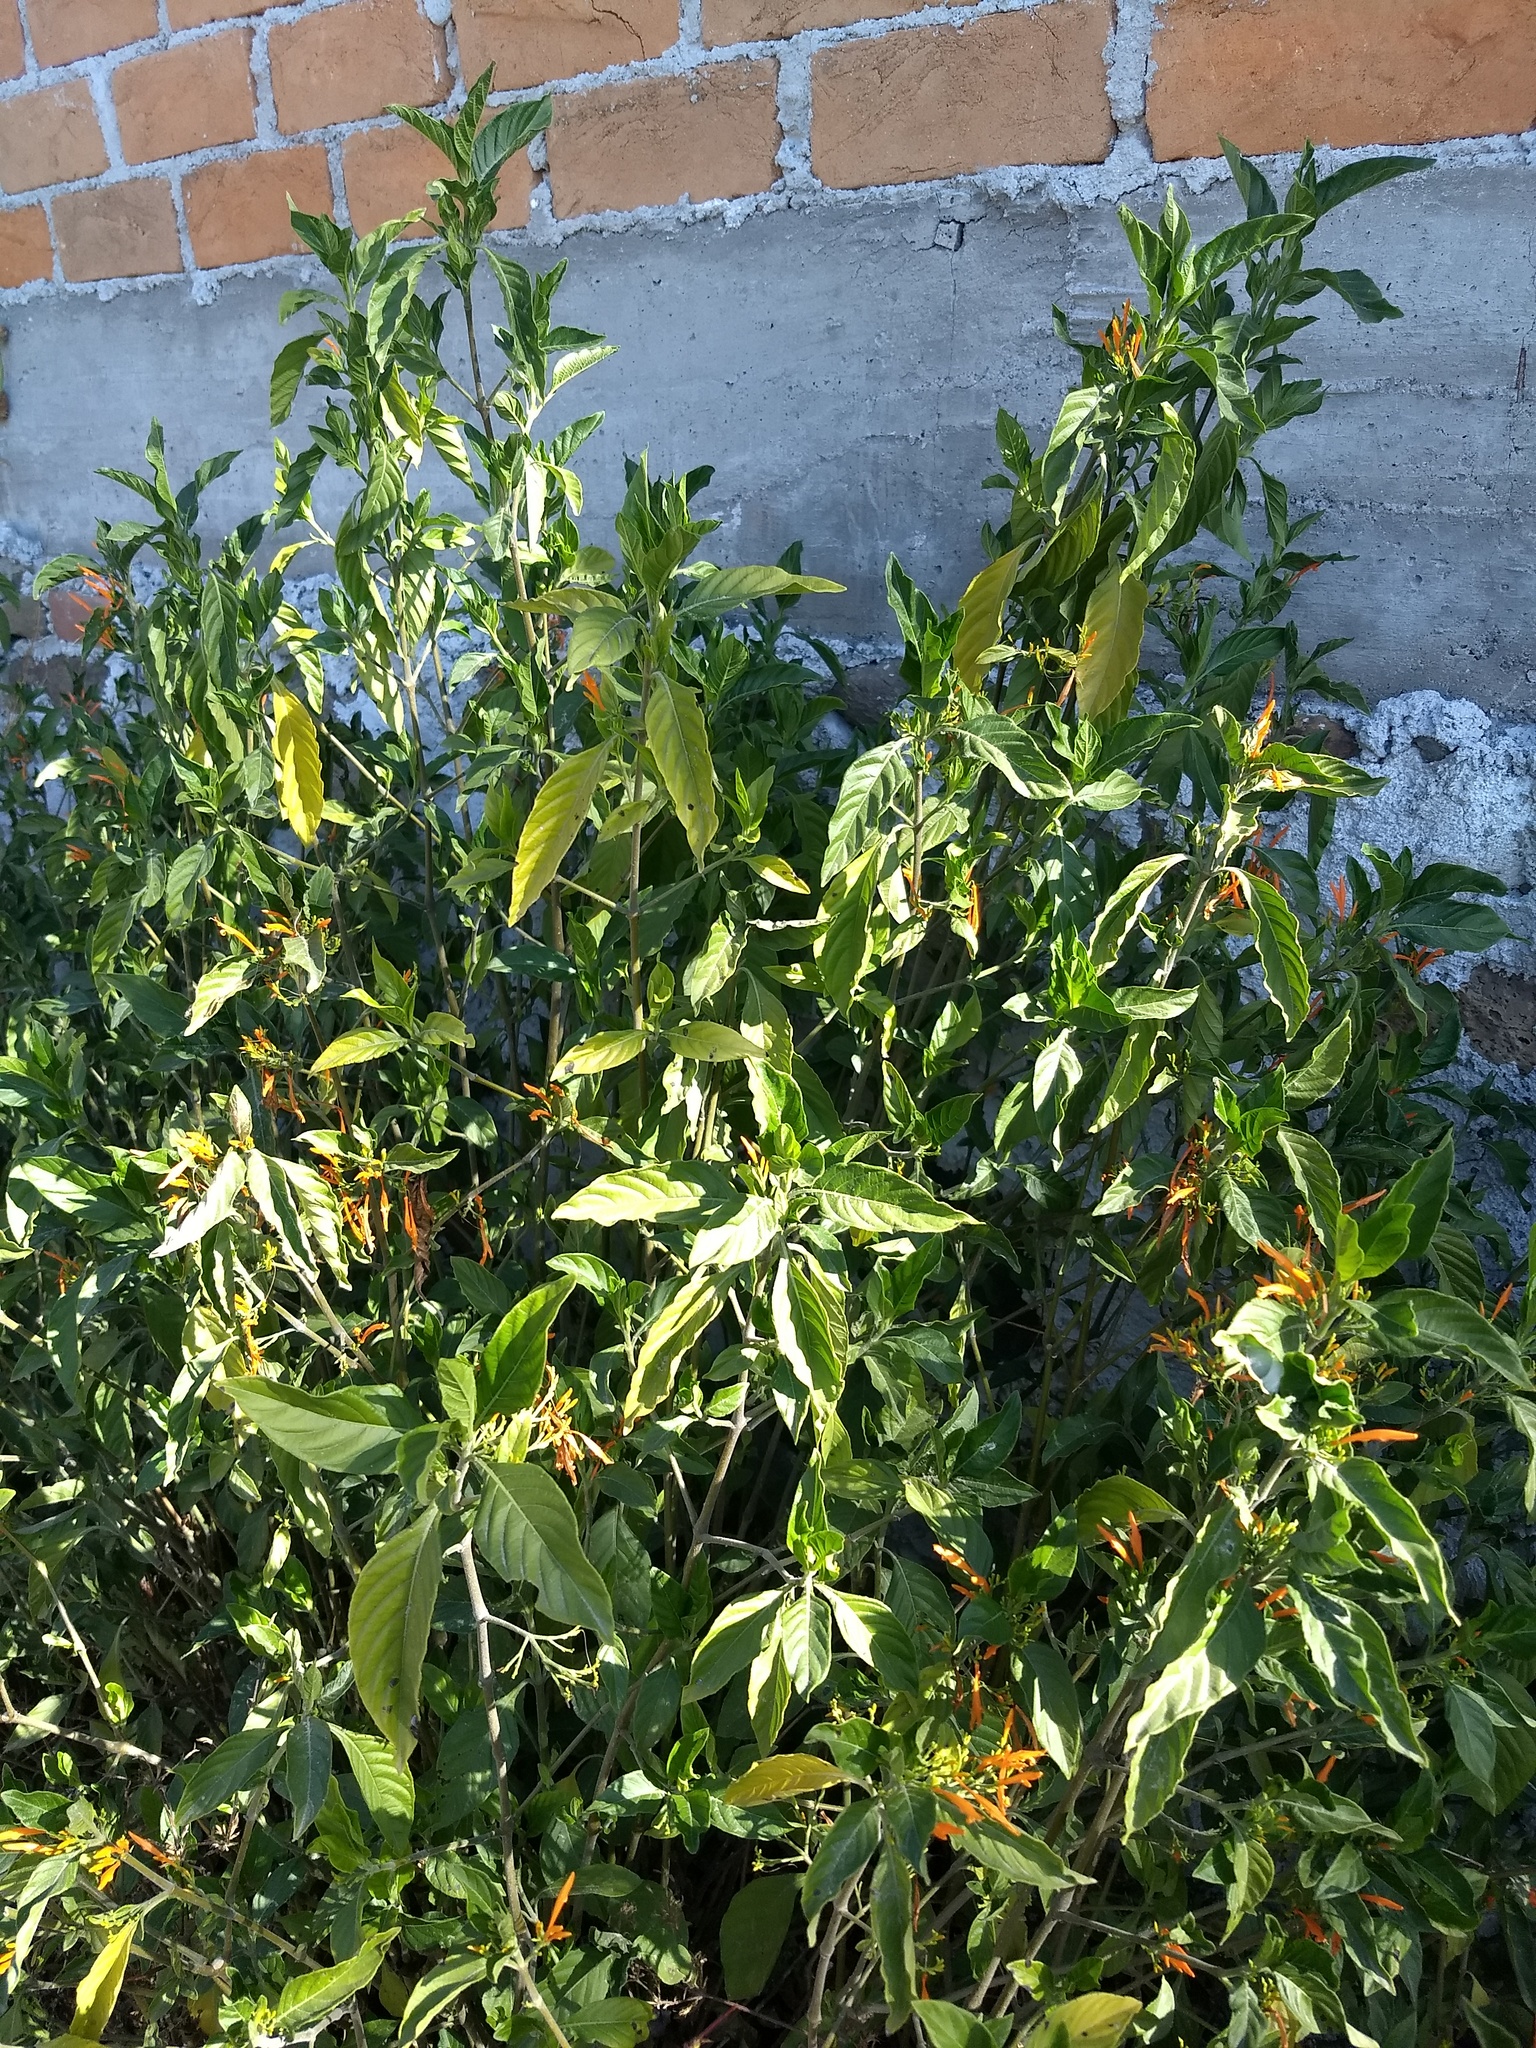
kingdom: Plantae
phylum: Tracheophyta
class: Magnoliopsida
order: Lamiales
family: Acanthaceae
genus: Justicia
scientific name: Justicia spicigera
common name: Mohintli
